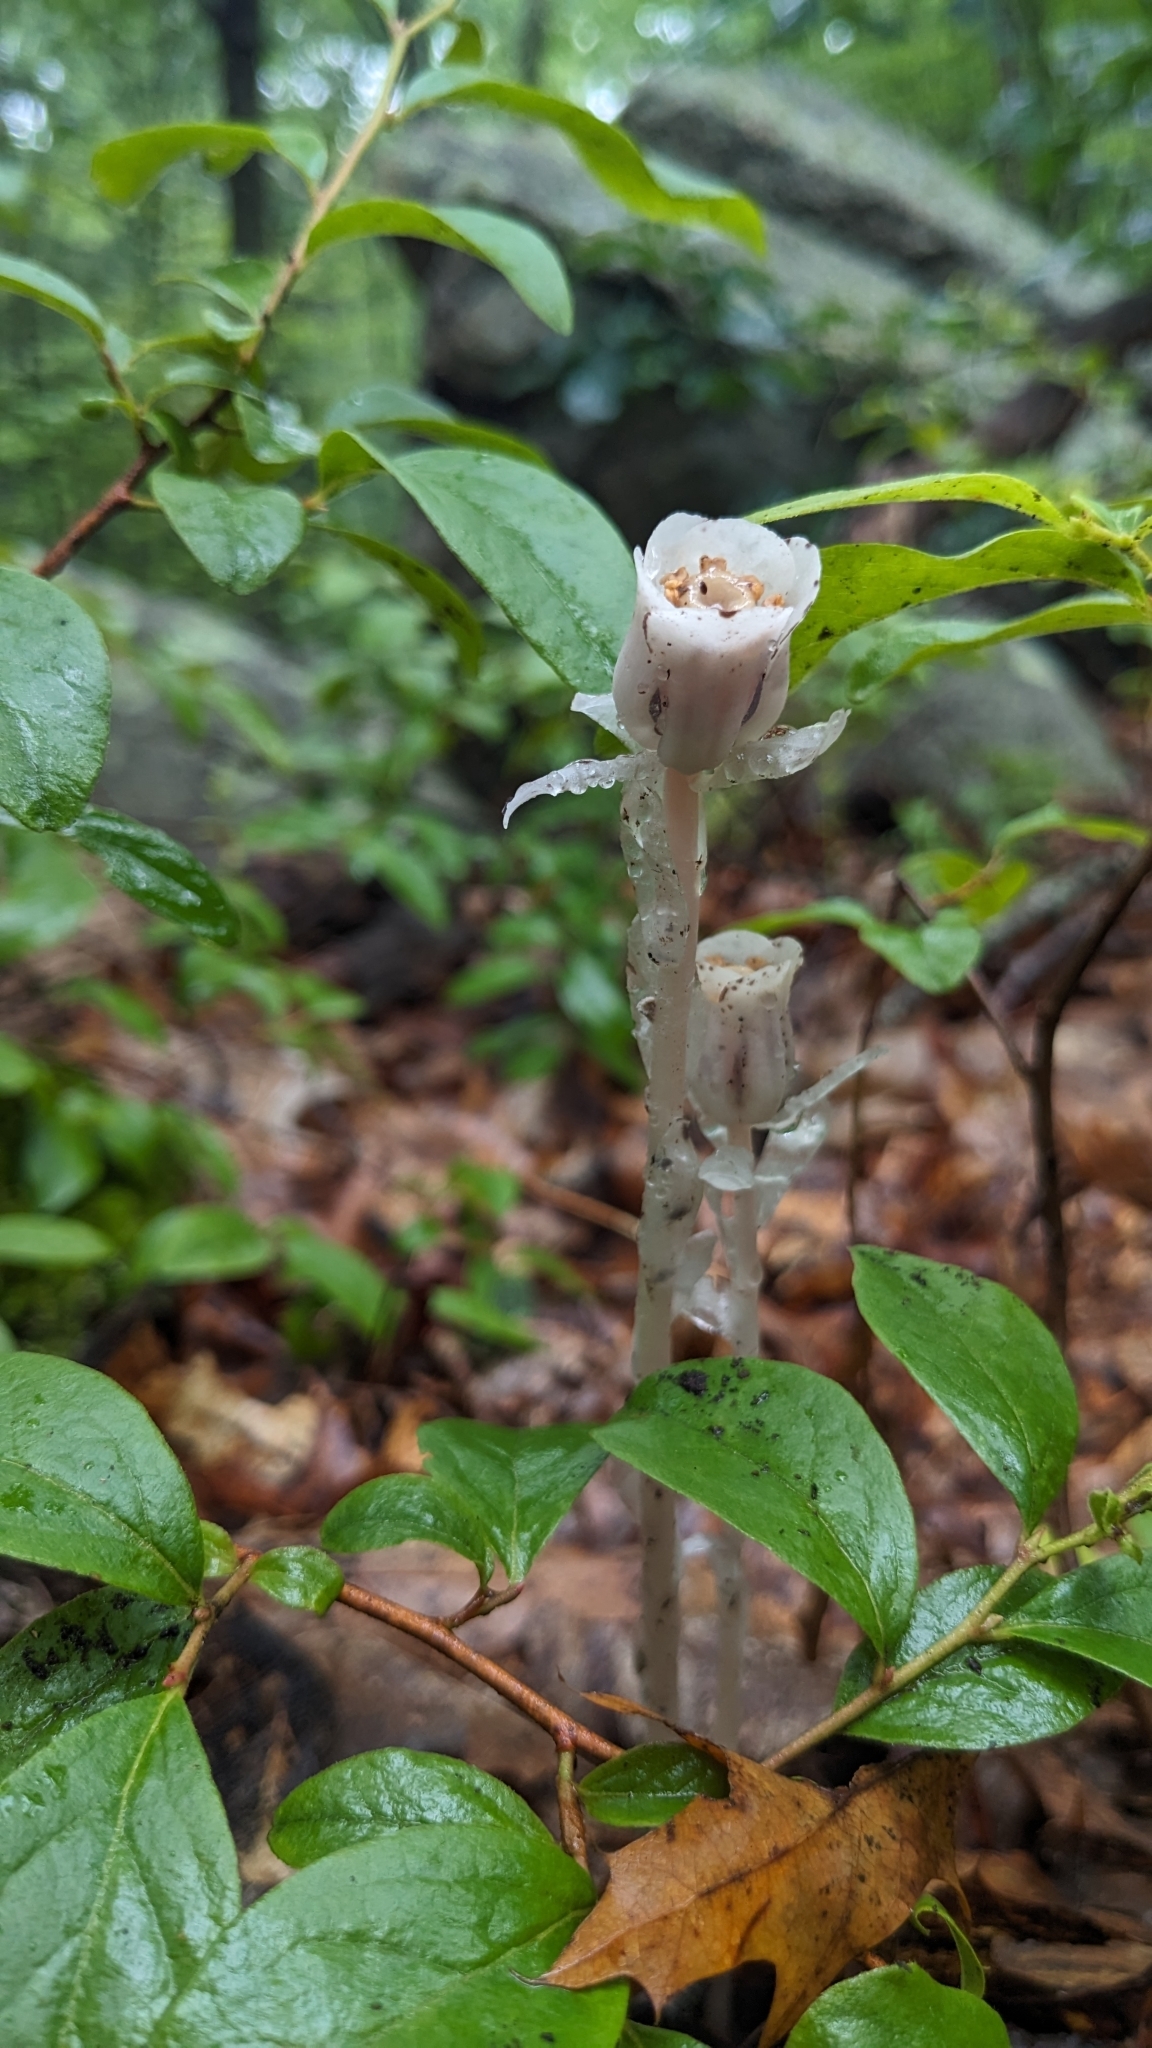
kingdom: Plantae
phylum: Tracheophyta
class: Magnoliopsida
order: Ericales
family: Ericaceae
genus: Monotropa
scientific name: Monotropa uniflora
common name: Convulsion root
